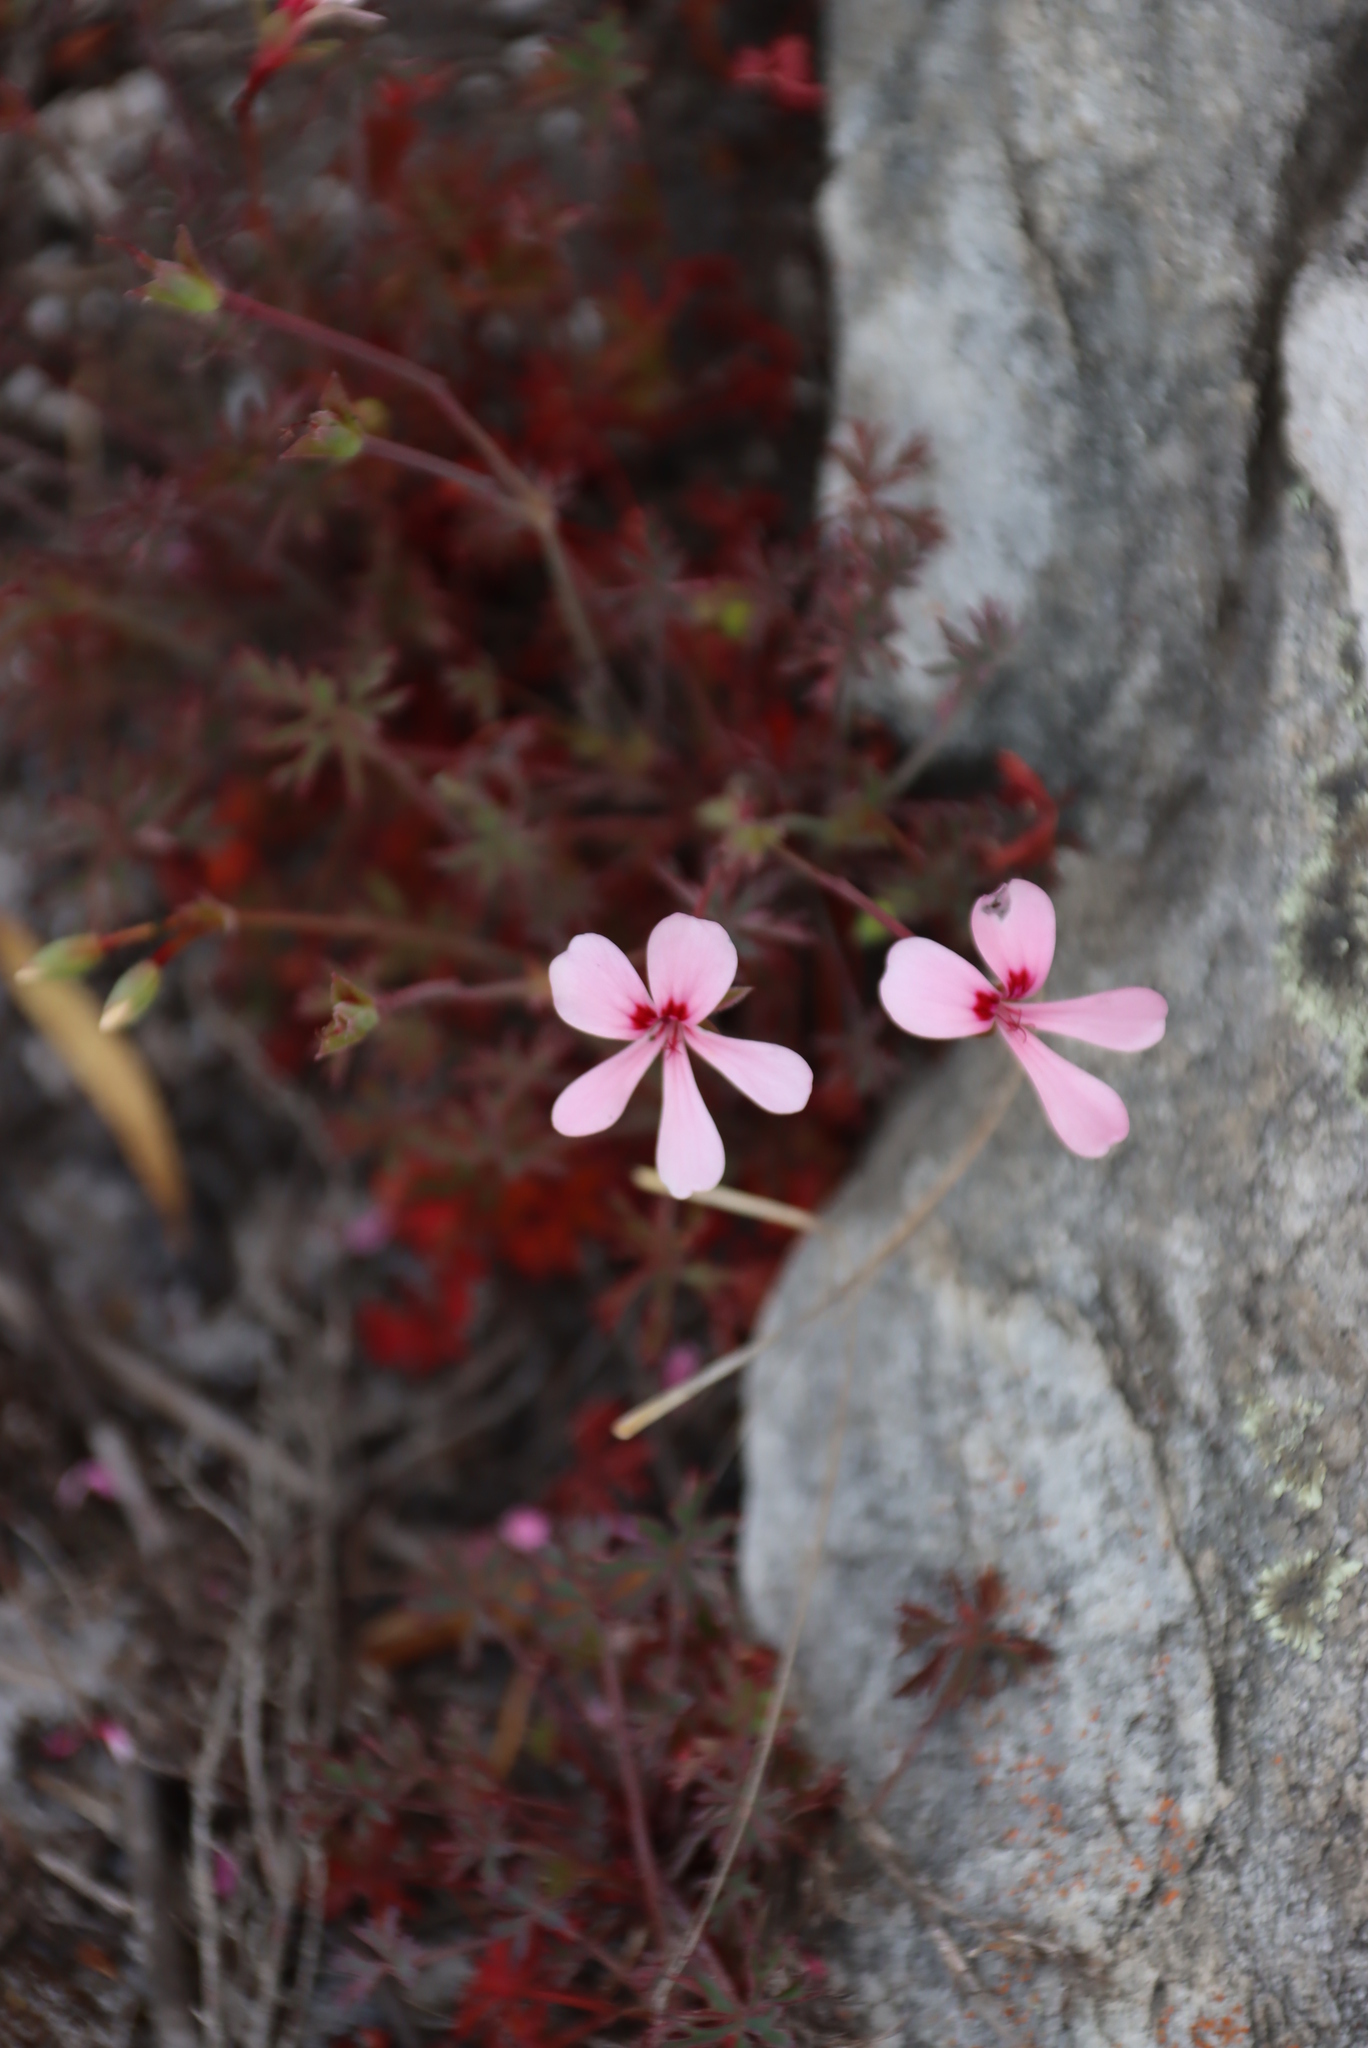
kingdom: Plantae
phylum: Tracheophyta
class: Magnoliopsida
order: Geraniales
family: Geraniaceae
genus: Pelargonium
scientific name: Pelargonium patulum
